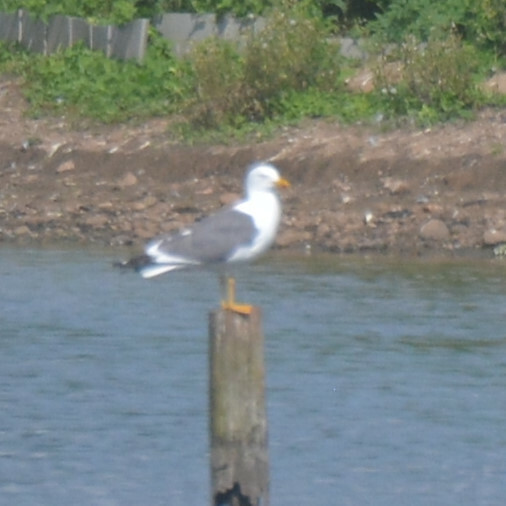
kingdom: Animalia
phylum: Chordata
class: Aves
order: Charadriiformes
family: Laridae
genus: Larus
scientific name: Larus fuscus
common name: Lesser black-backed gull
